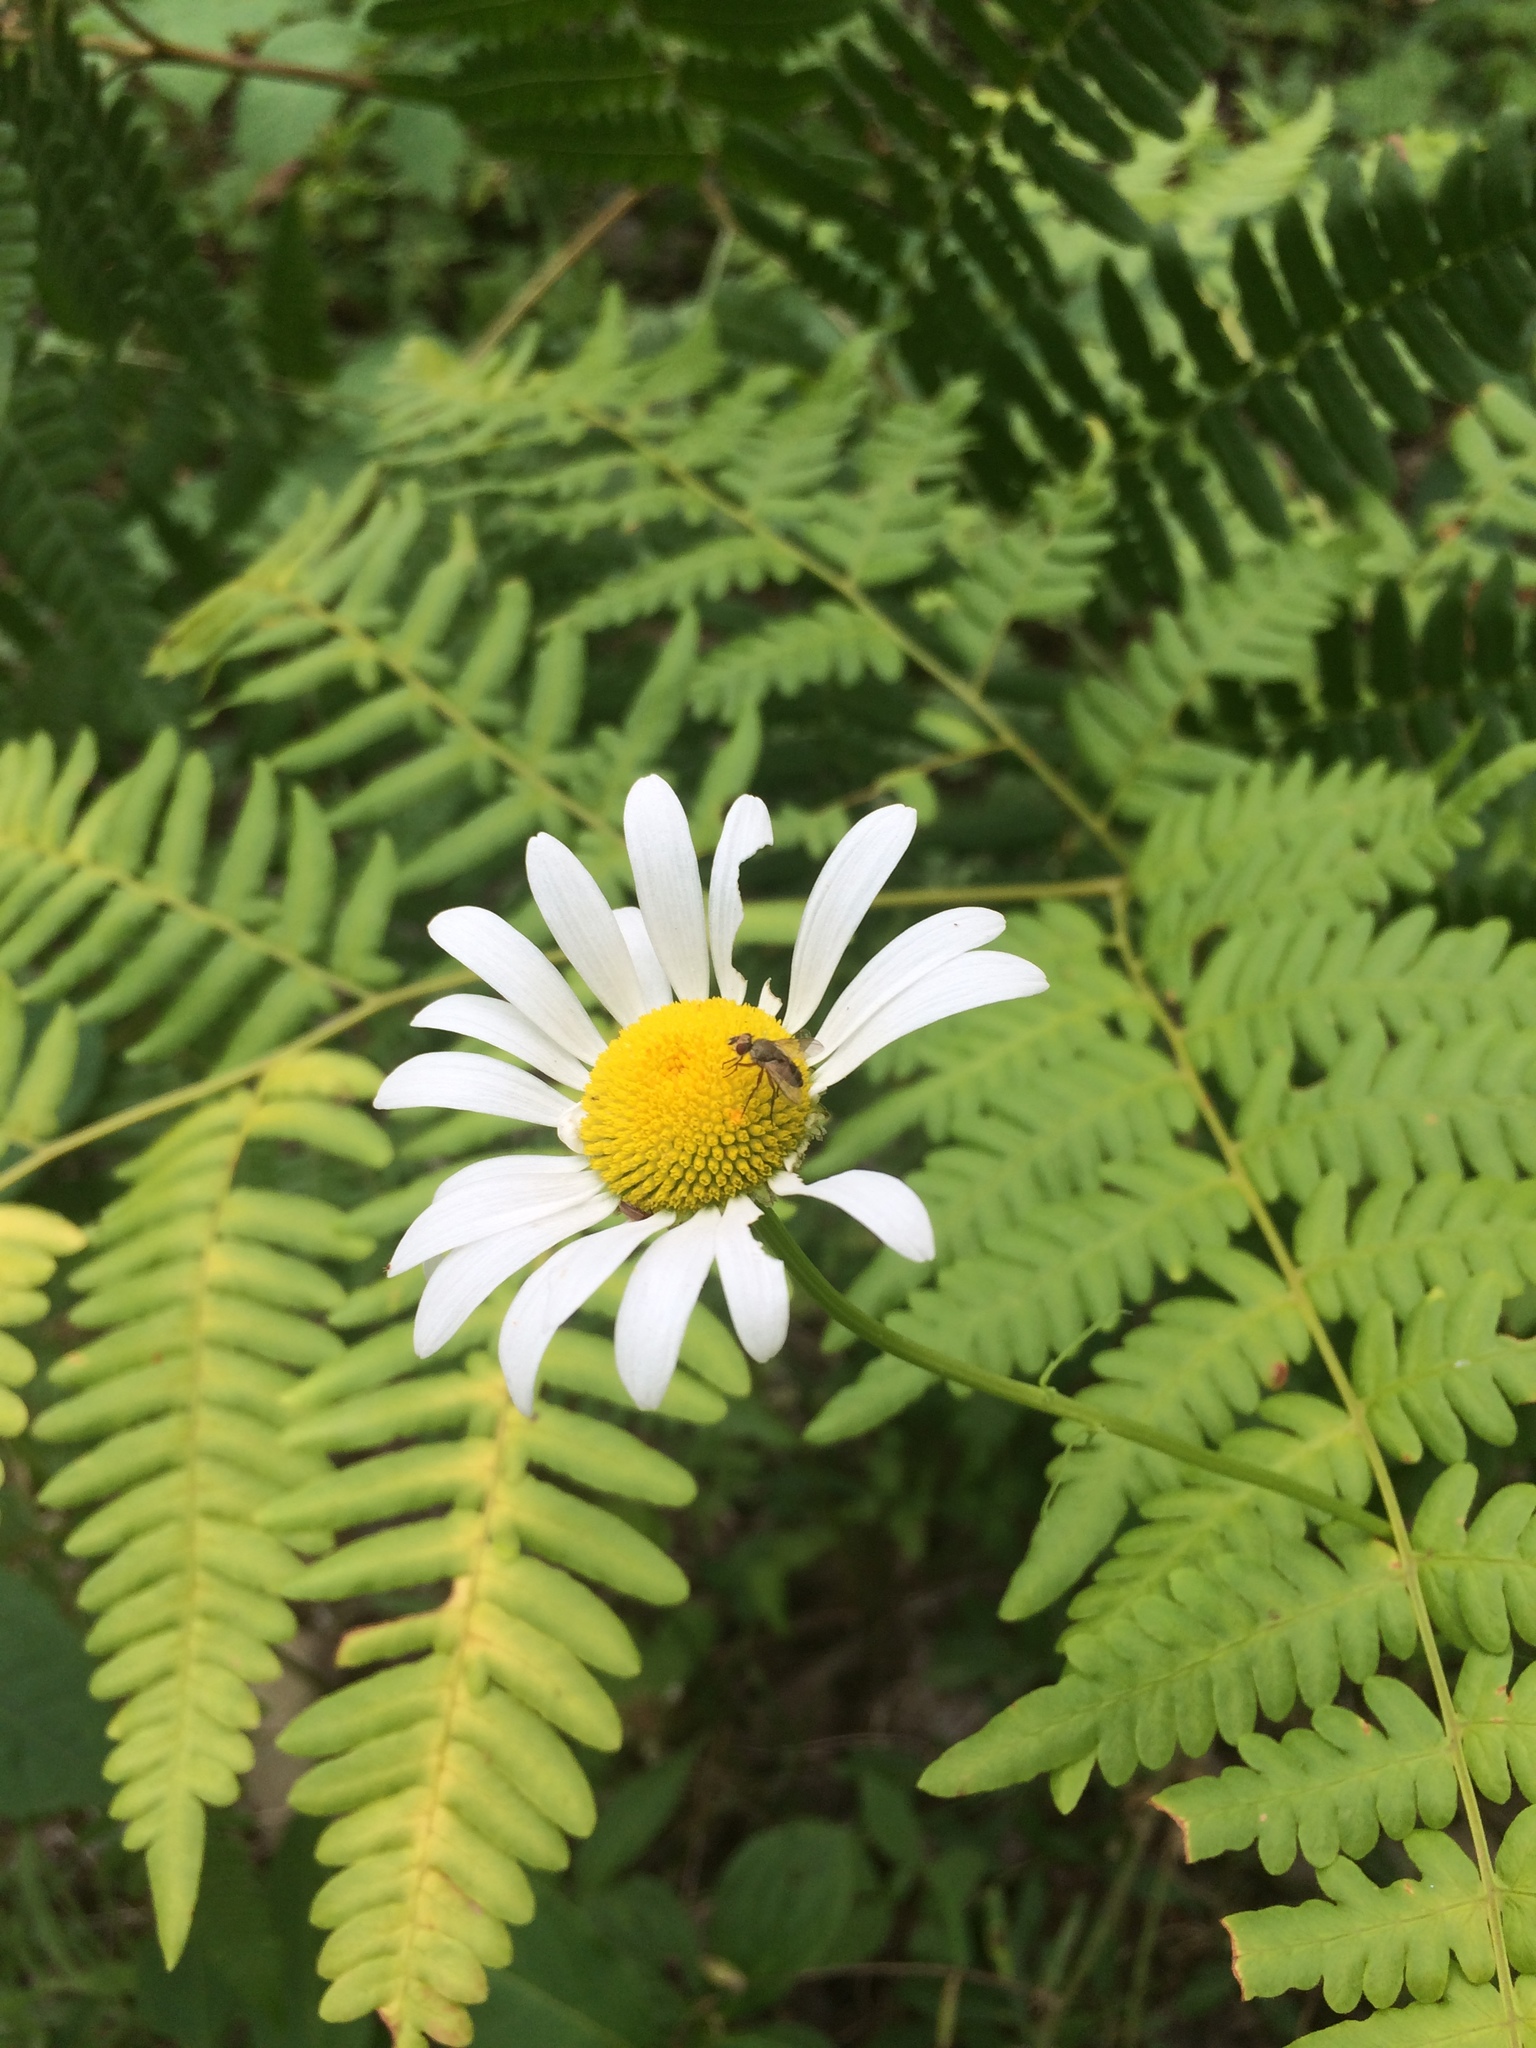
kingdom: Plantae
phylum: Tracheophyta
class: Magnoliopsida
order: Asterales
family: Asteraceae
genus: Leucanthemum
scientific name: Leucanthemum vulgare
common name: Oxeye daisy
